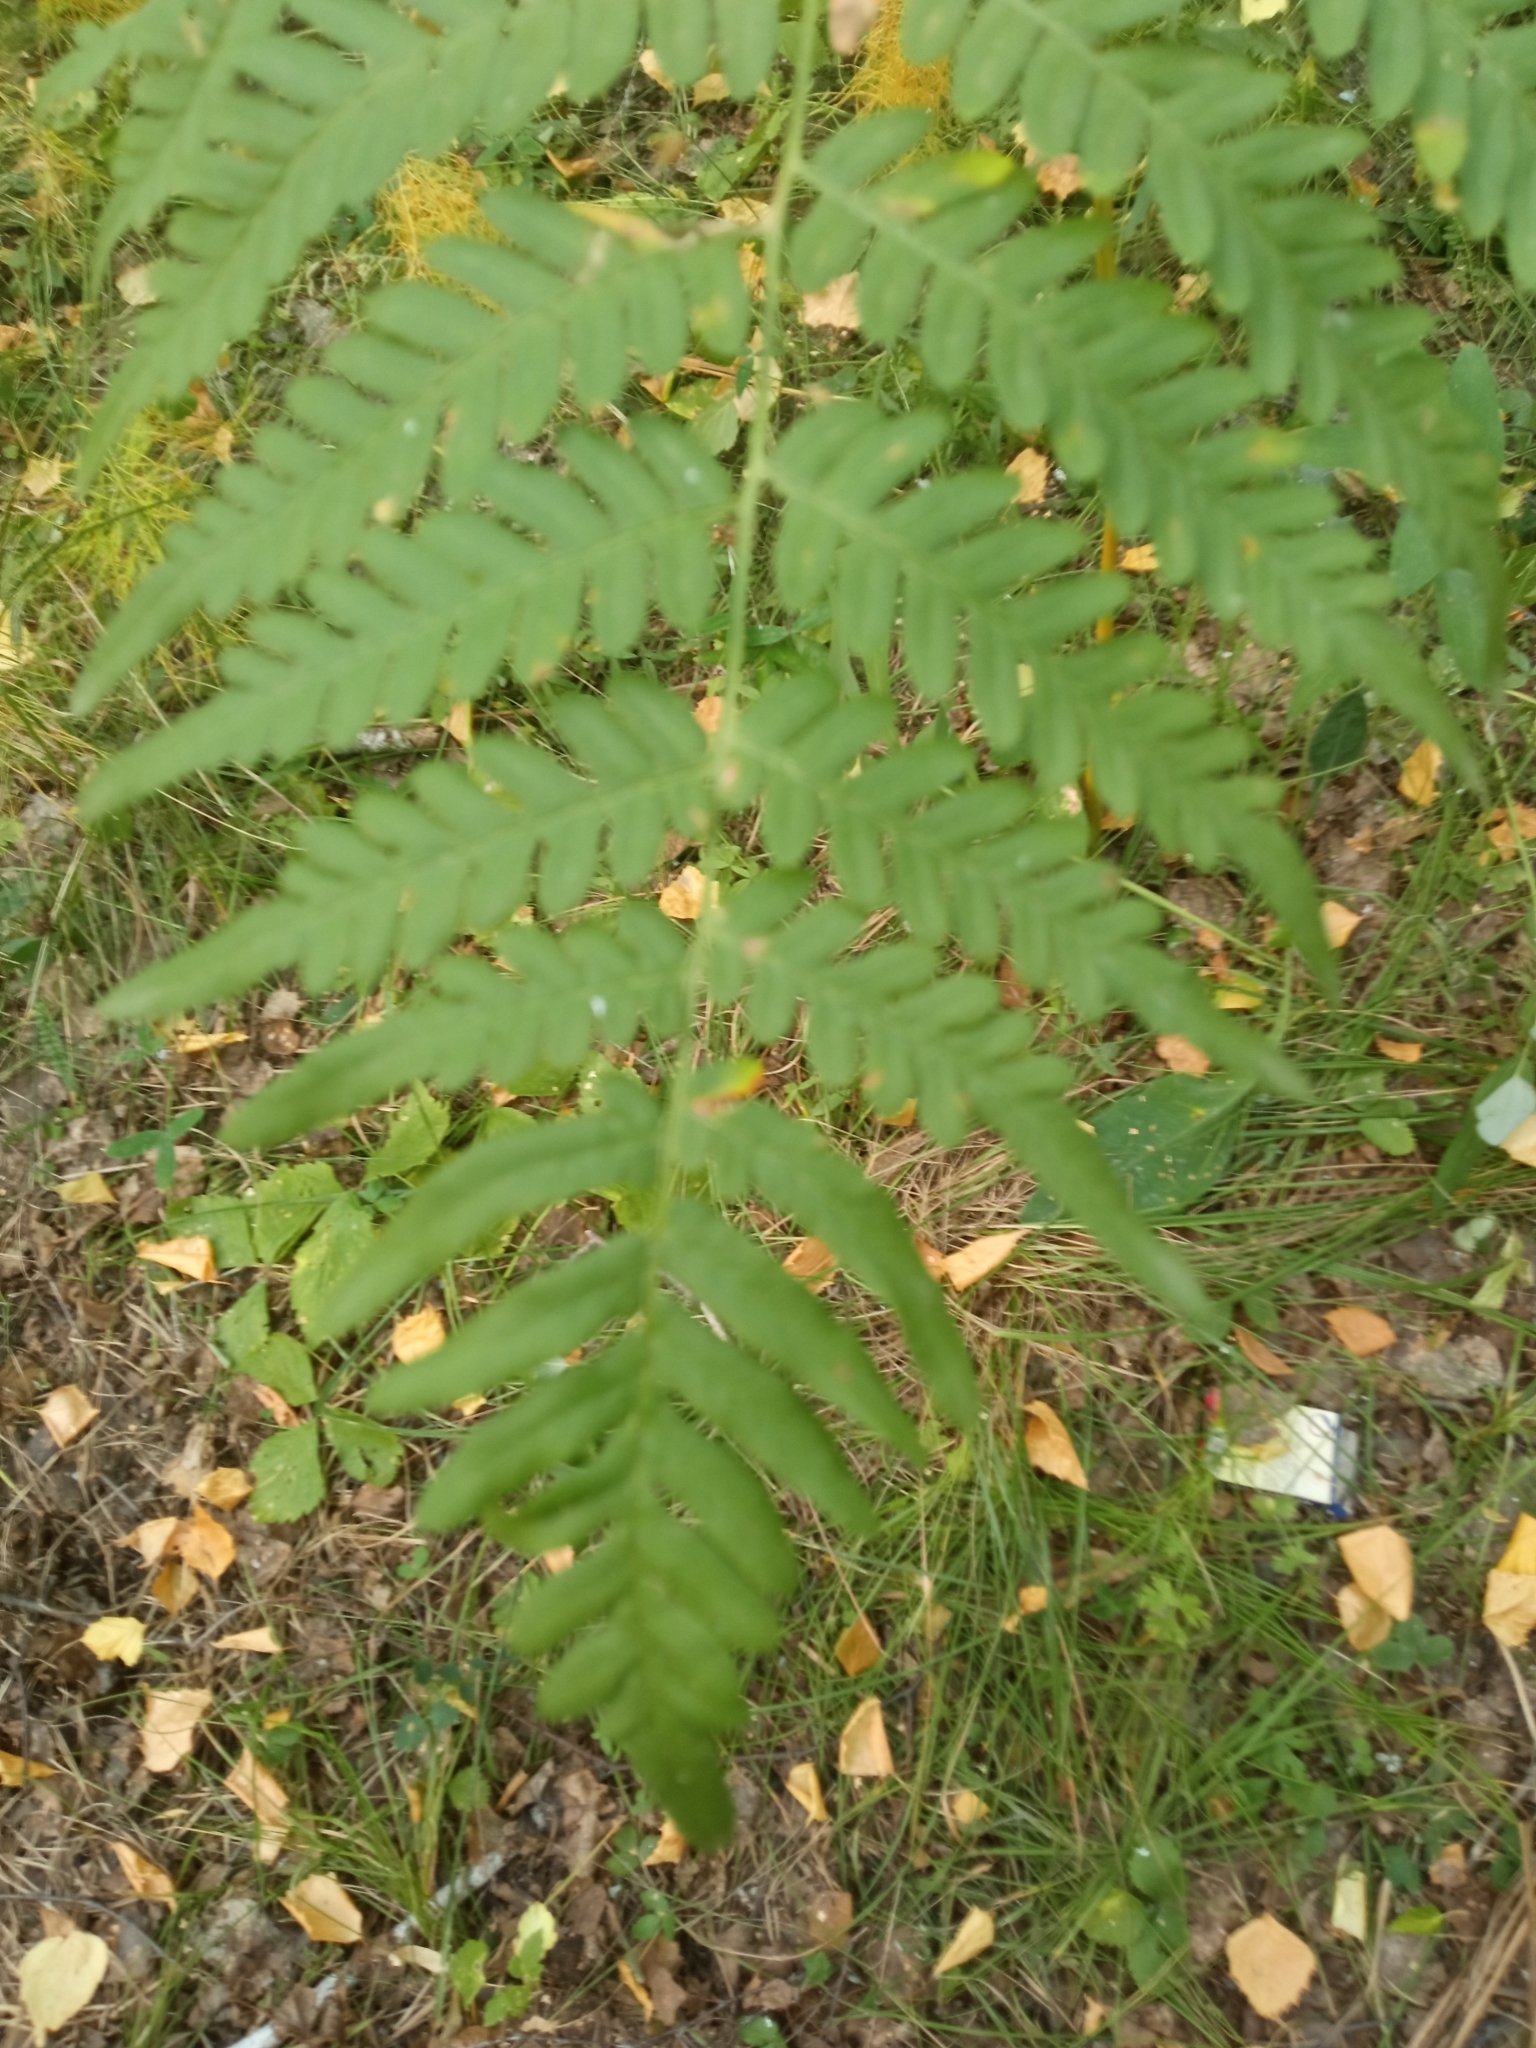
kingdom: Plantae
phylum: Tracheophyta
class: Polypodiopsida
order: Polypodiales
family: Dennstaedtiaceae
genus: Pteridium
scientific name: Pteridium aquilinum
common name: Bracken
